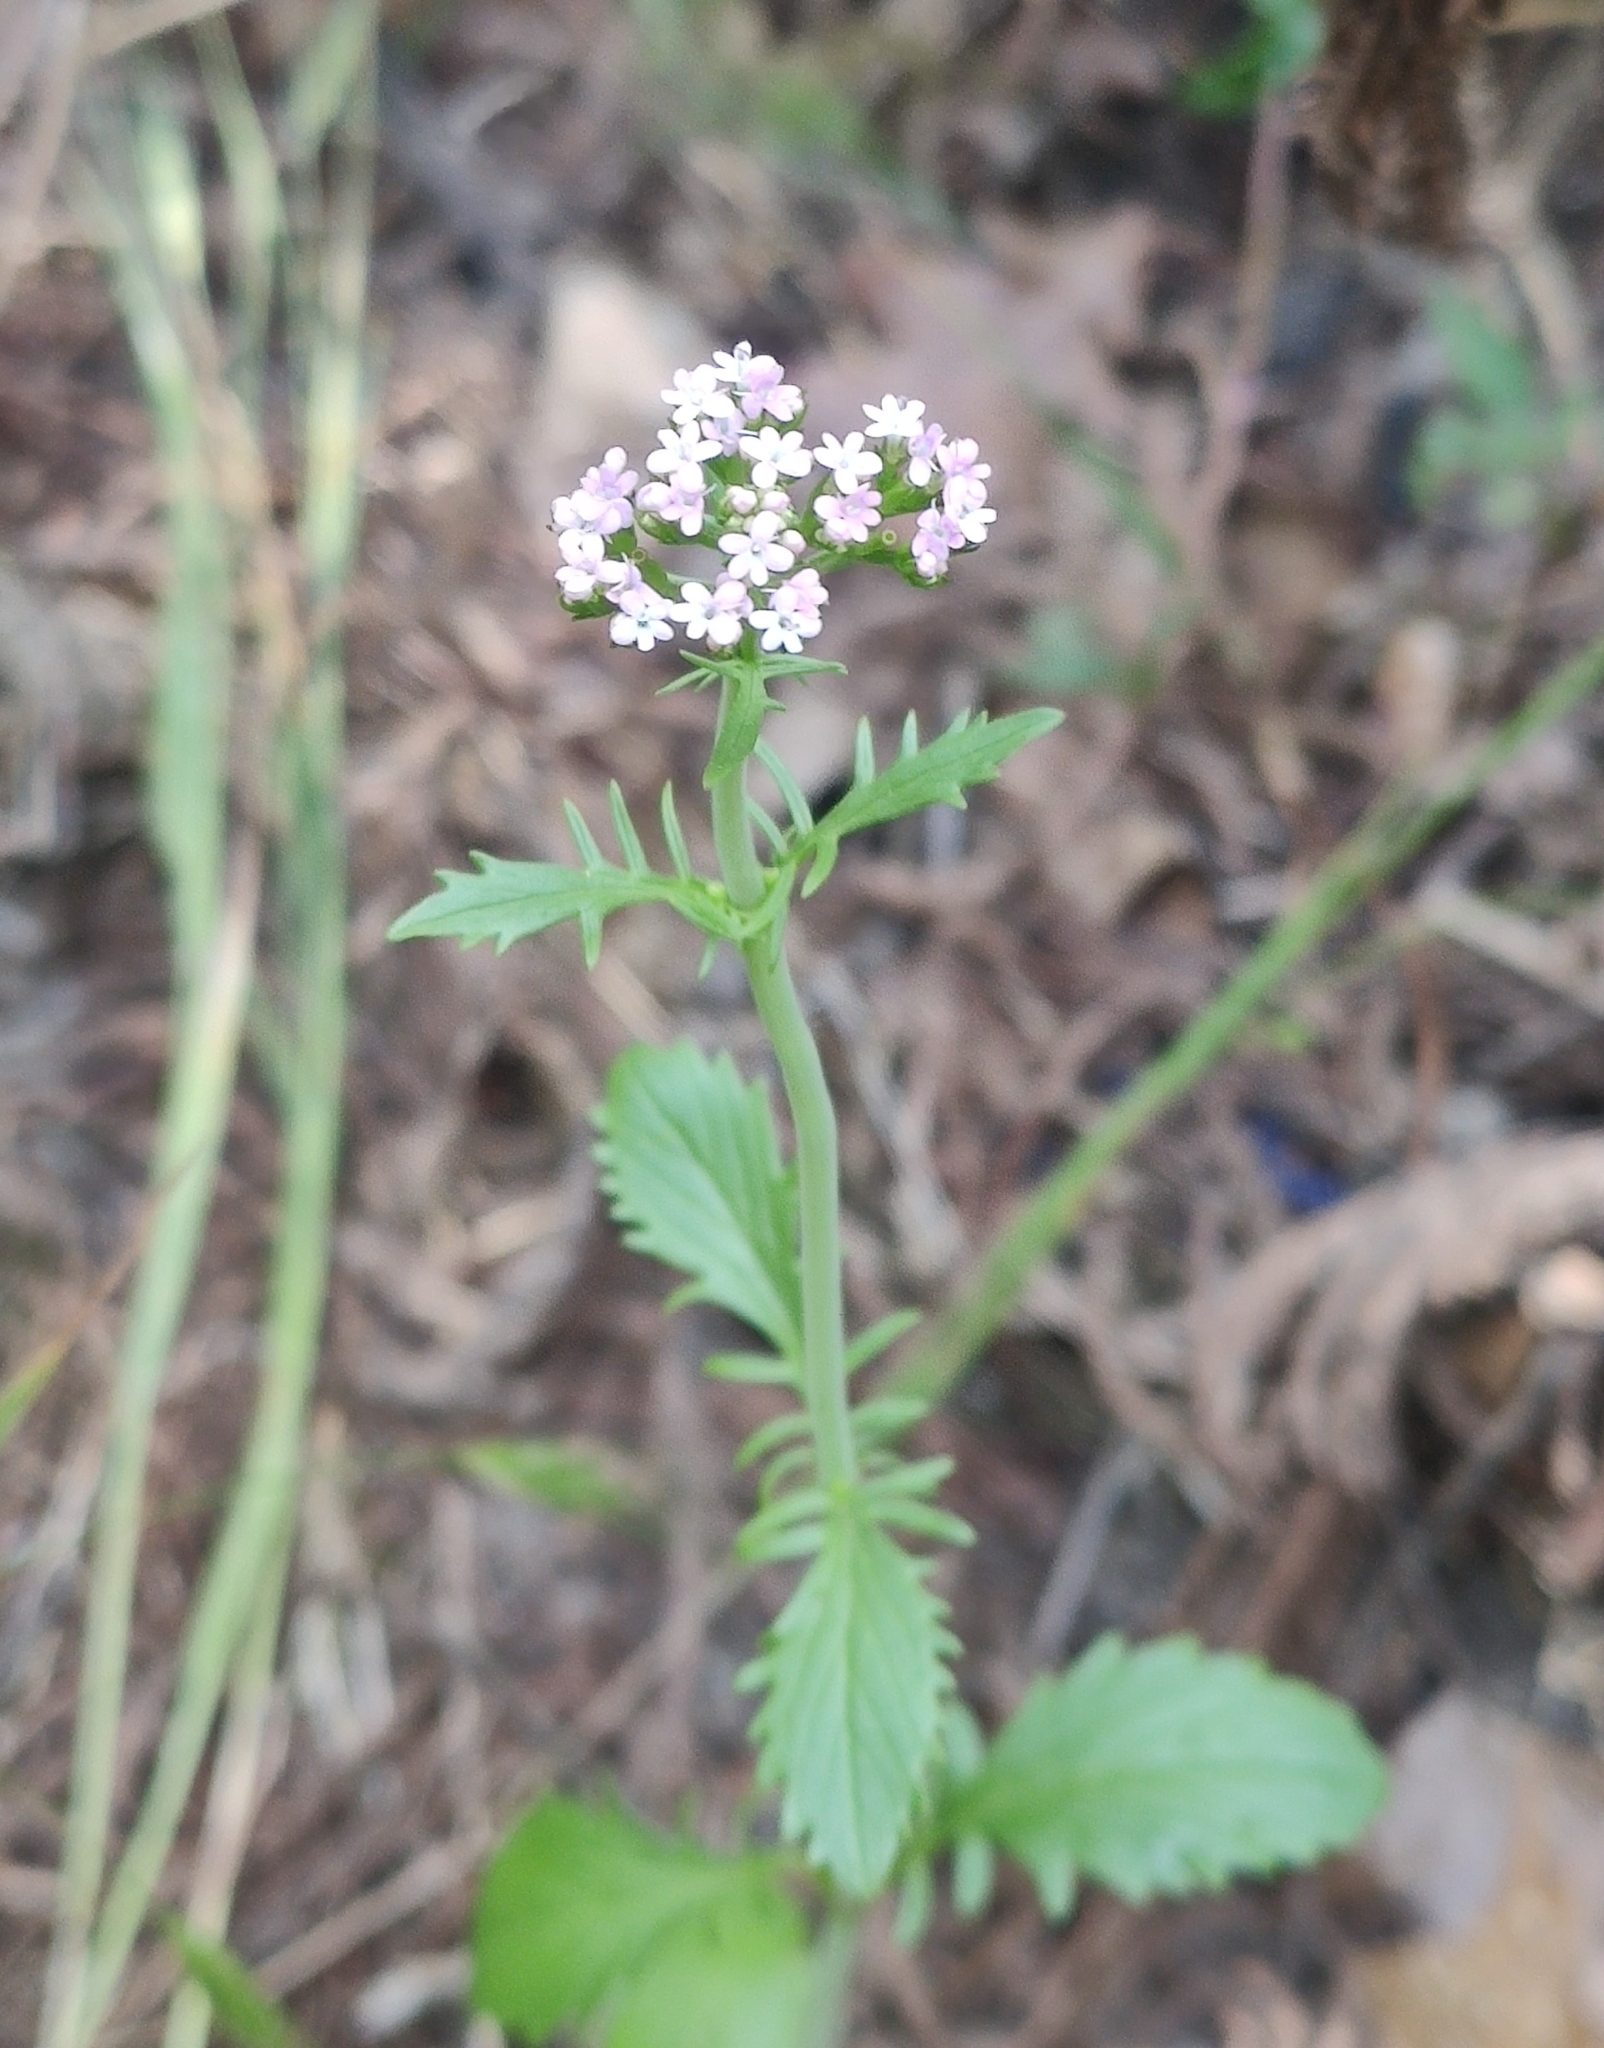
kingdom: Plantae
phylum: Tracheophyta
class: Magnoliopsida
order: Dipsacales
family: Caprifoliaceae
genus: Centranthus
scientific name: Centranthus calcitrapae
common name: Annual valerian
